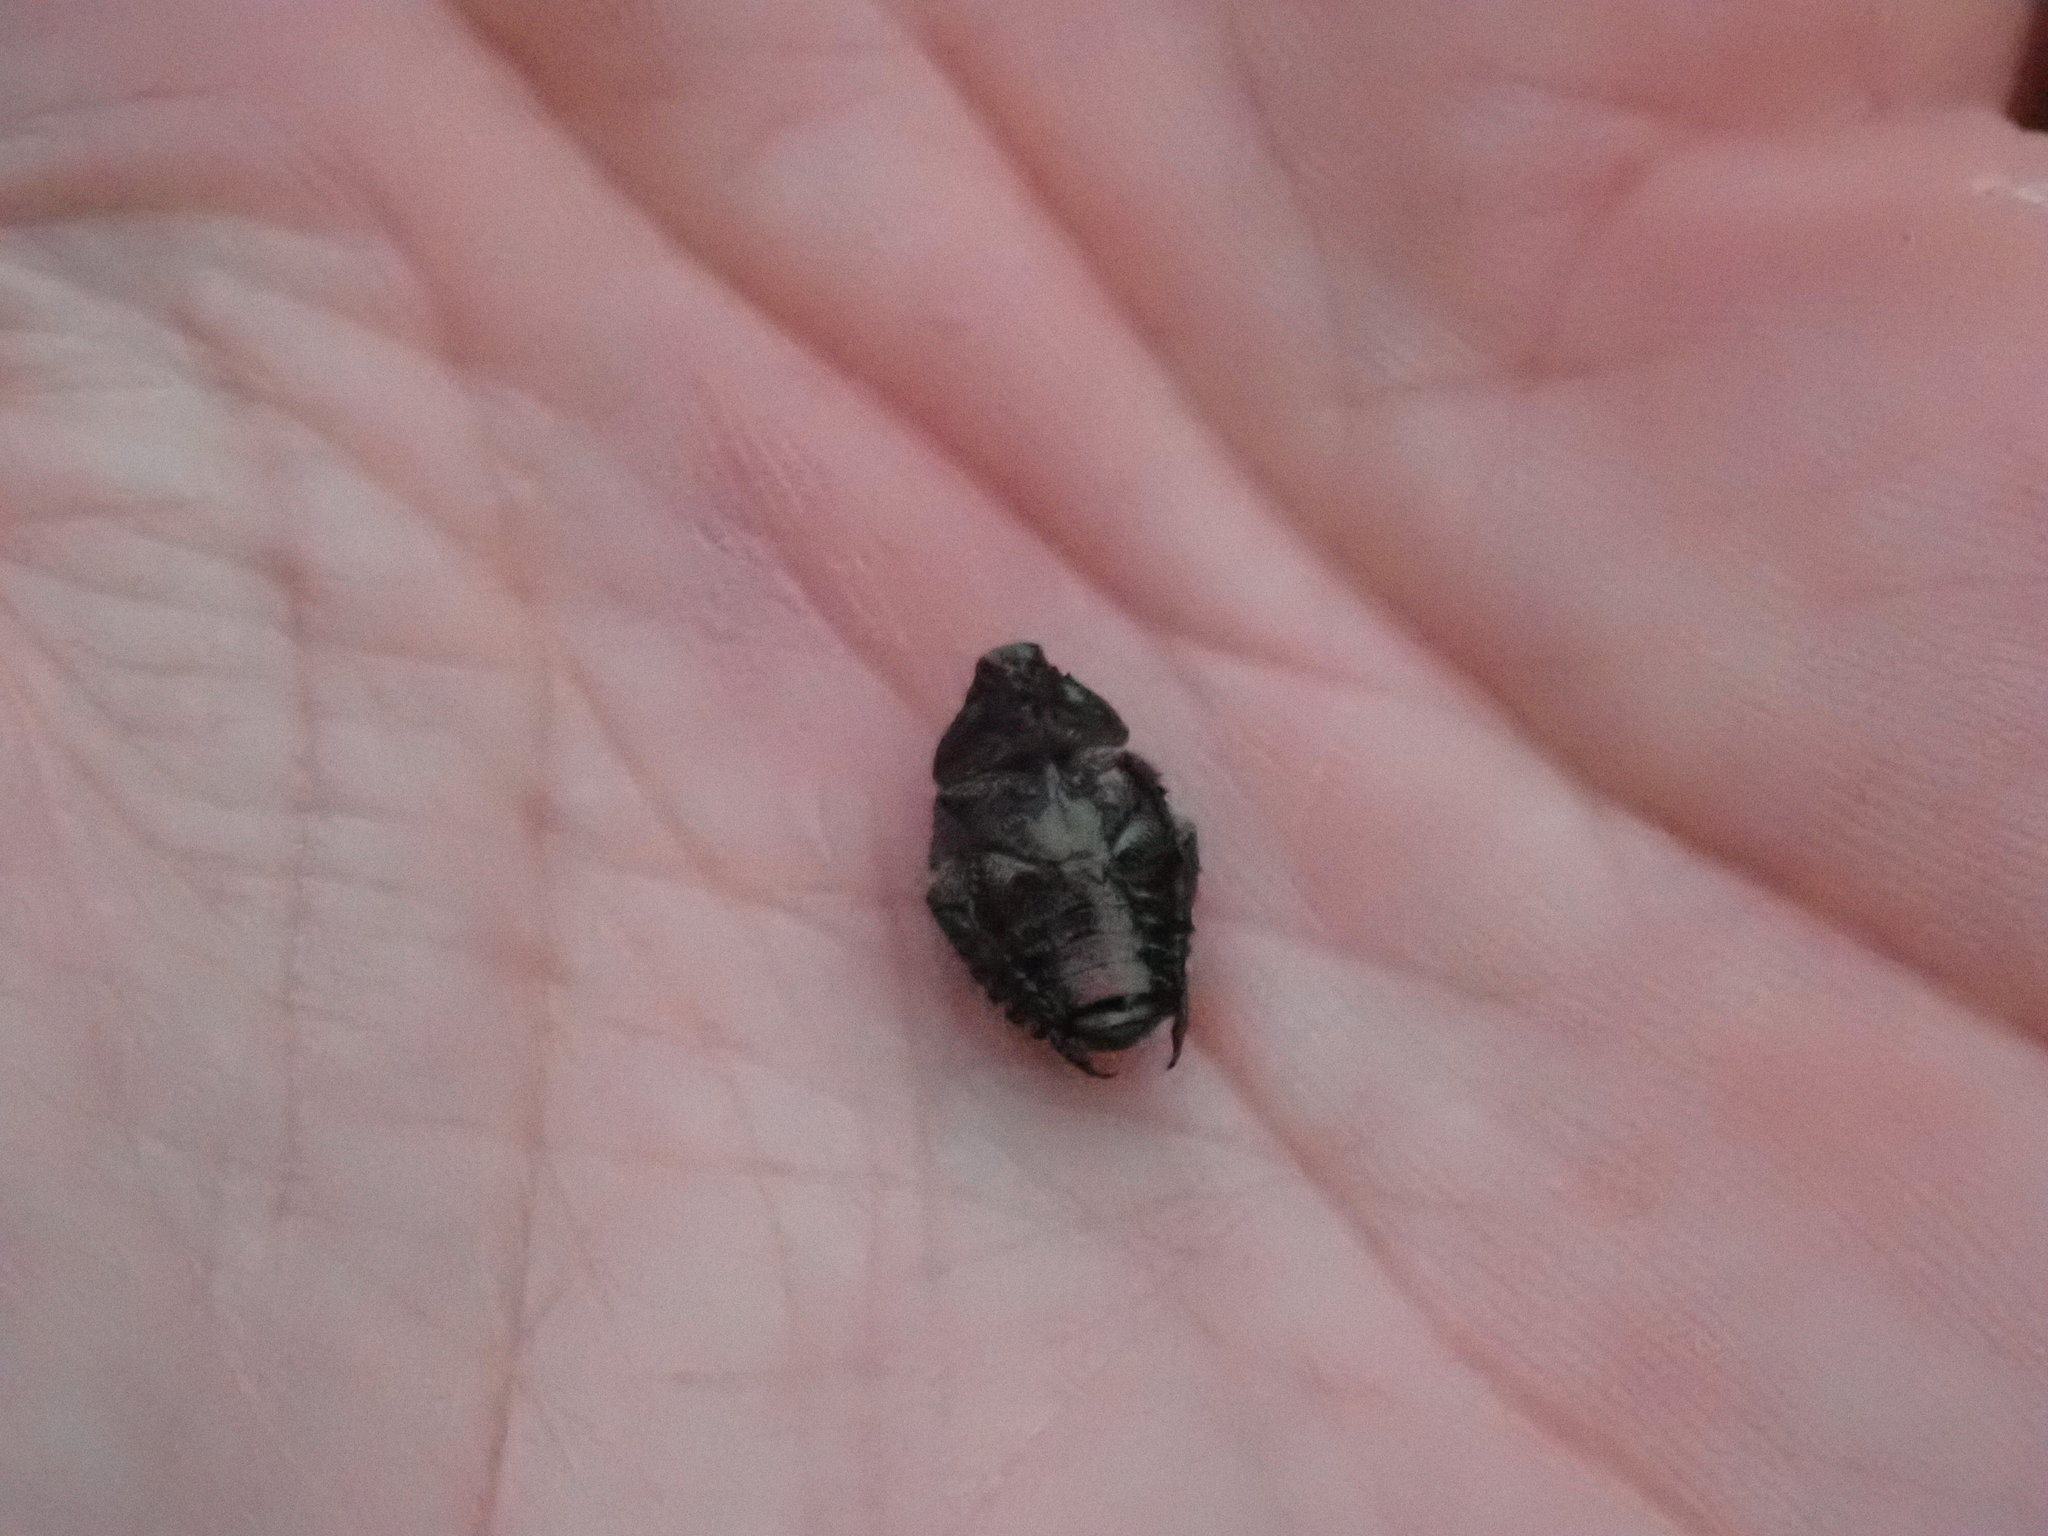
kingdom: Animalia
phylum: Arthropoda
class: Insecta
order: Coleoptera
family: Scarabaeidae
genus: Popillia
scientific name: Popillia japonica
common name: Japanese beetle
